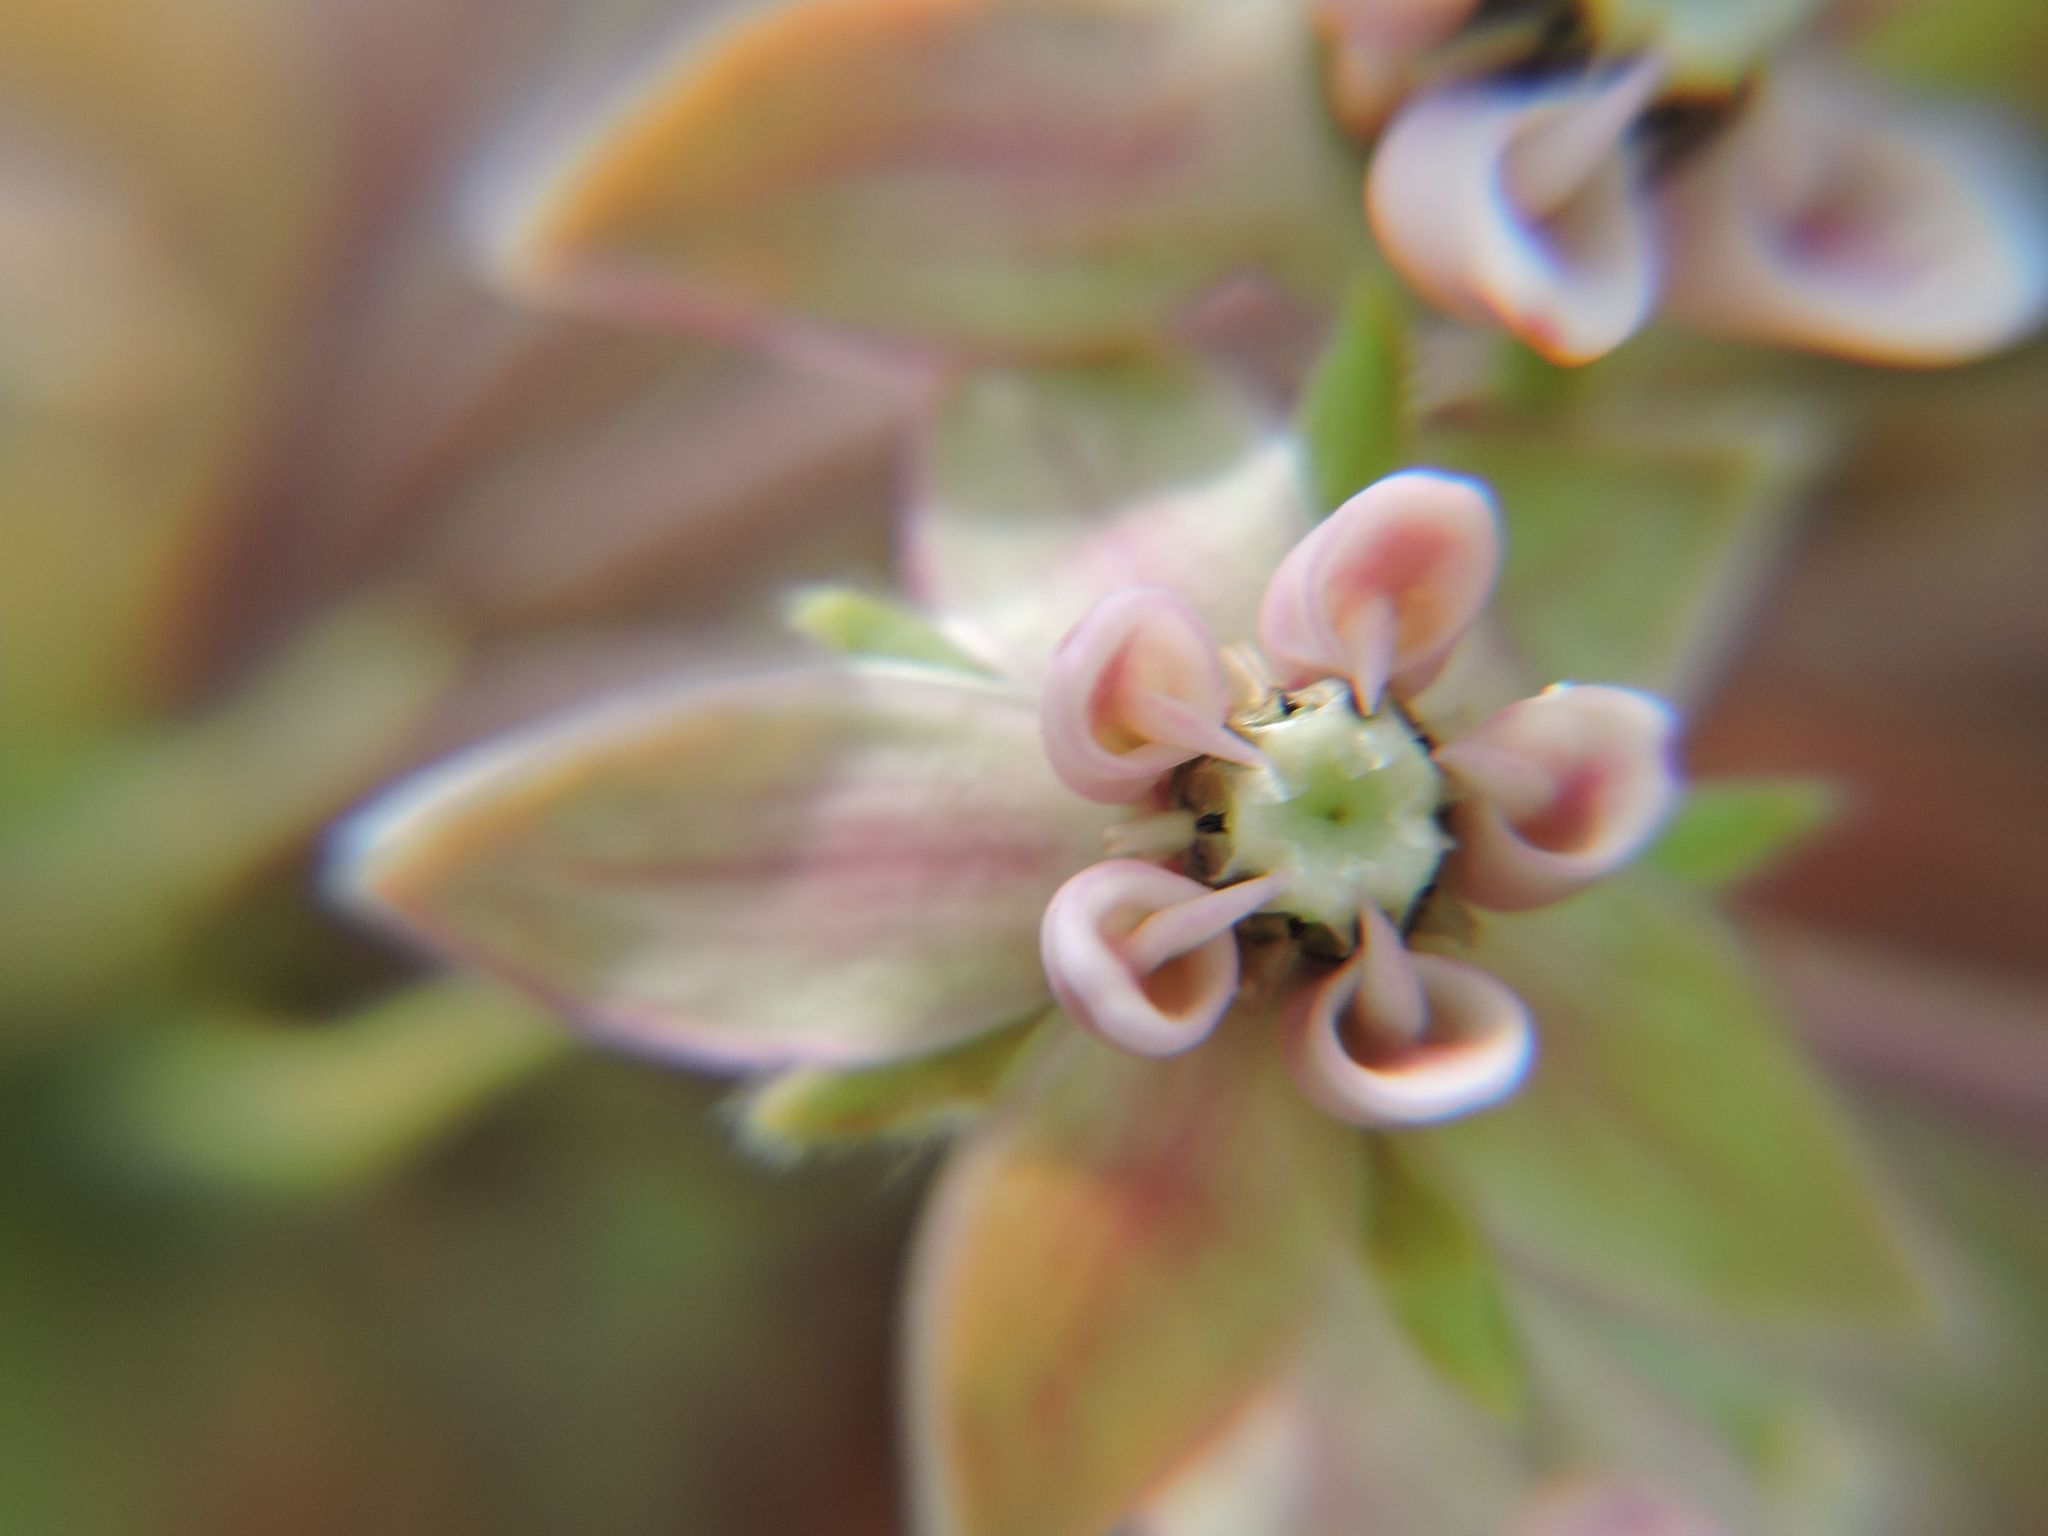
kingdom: Plantae
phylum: Tracheophyta
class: Magnoliopsida
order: Gentianales
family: Apocynaceae
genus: Asclepias
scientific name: Asclepias syriaca
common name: Common milkweed
